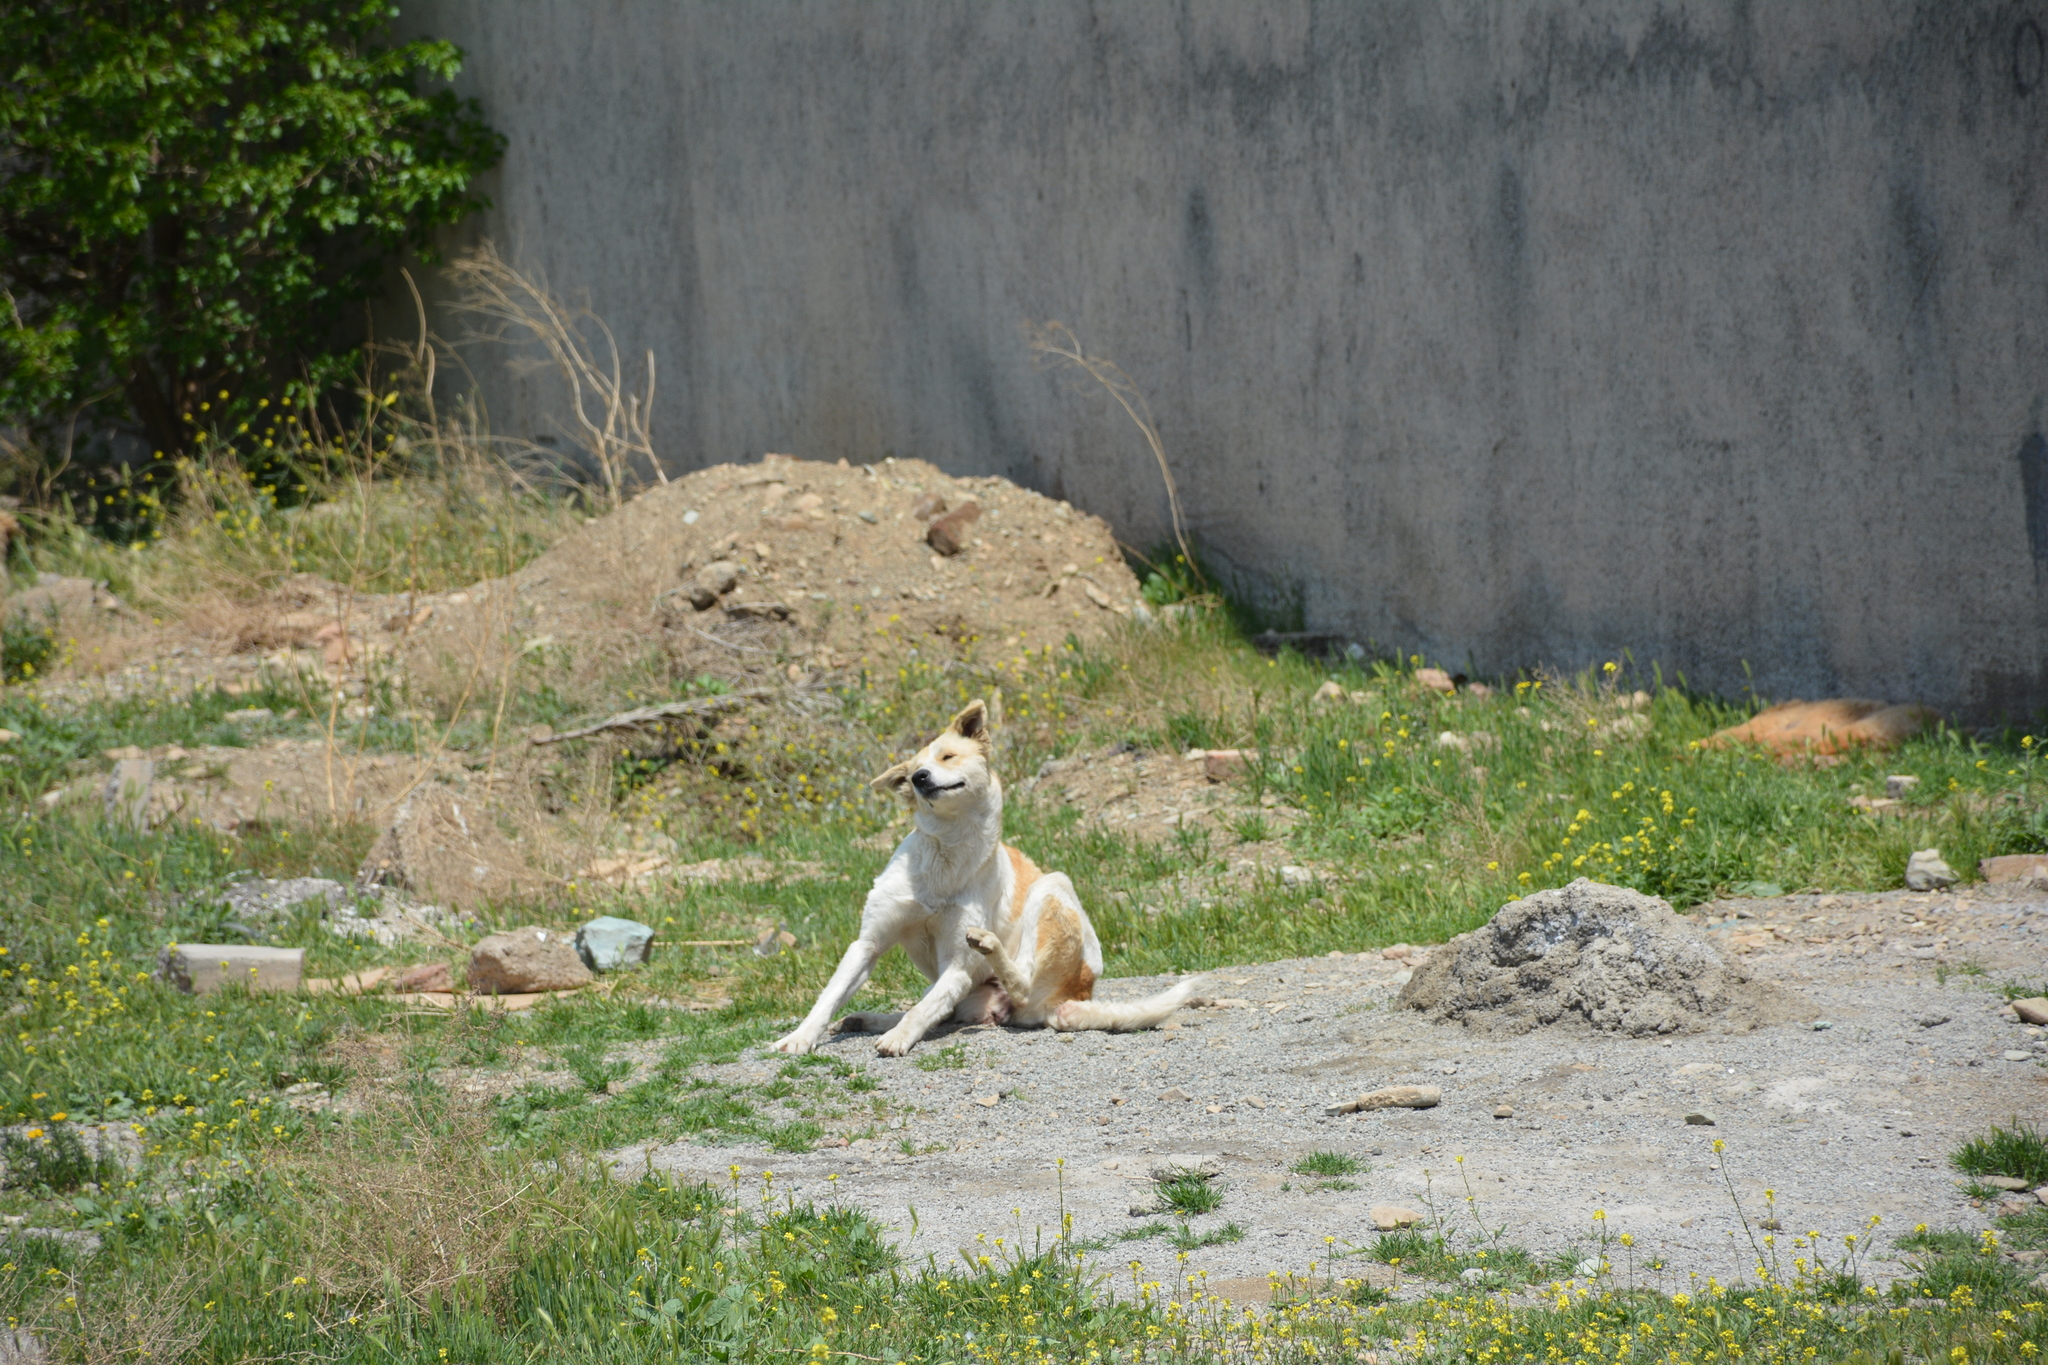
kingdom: Animalia
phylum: Chordata
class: Mammalia
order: Carnivora
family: Canidae
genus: Canis
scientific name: Canis lupus
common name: Gray wolf
